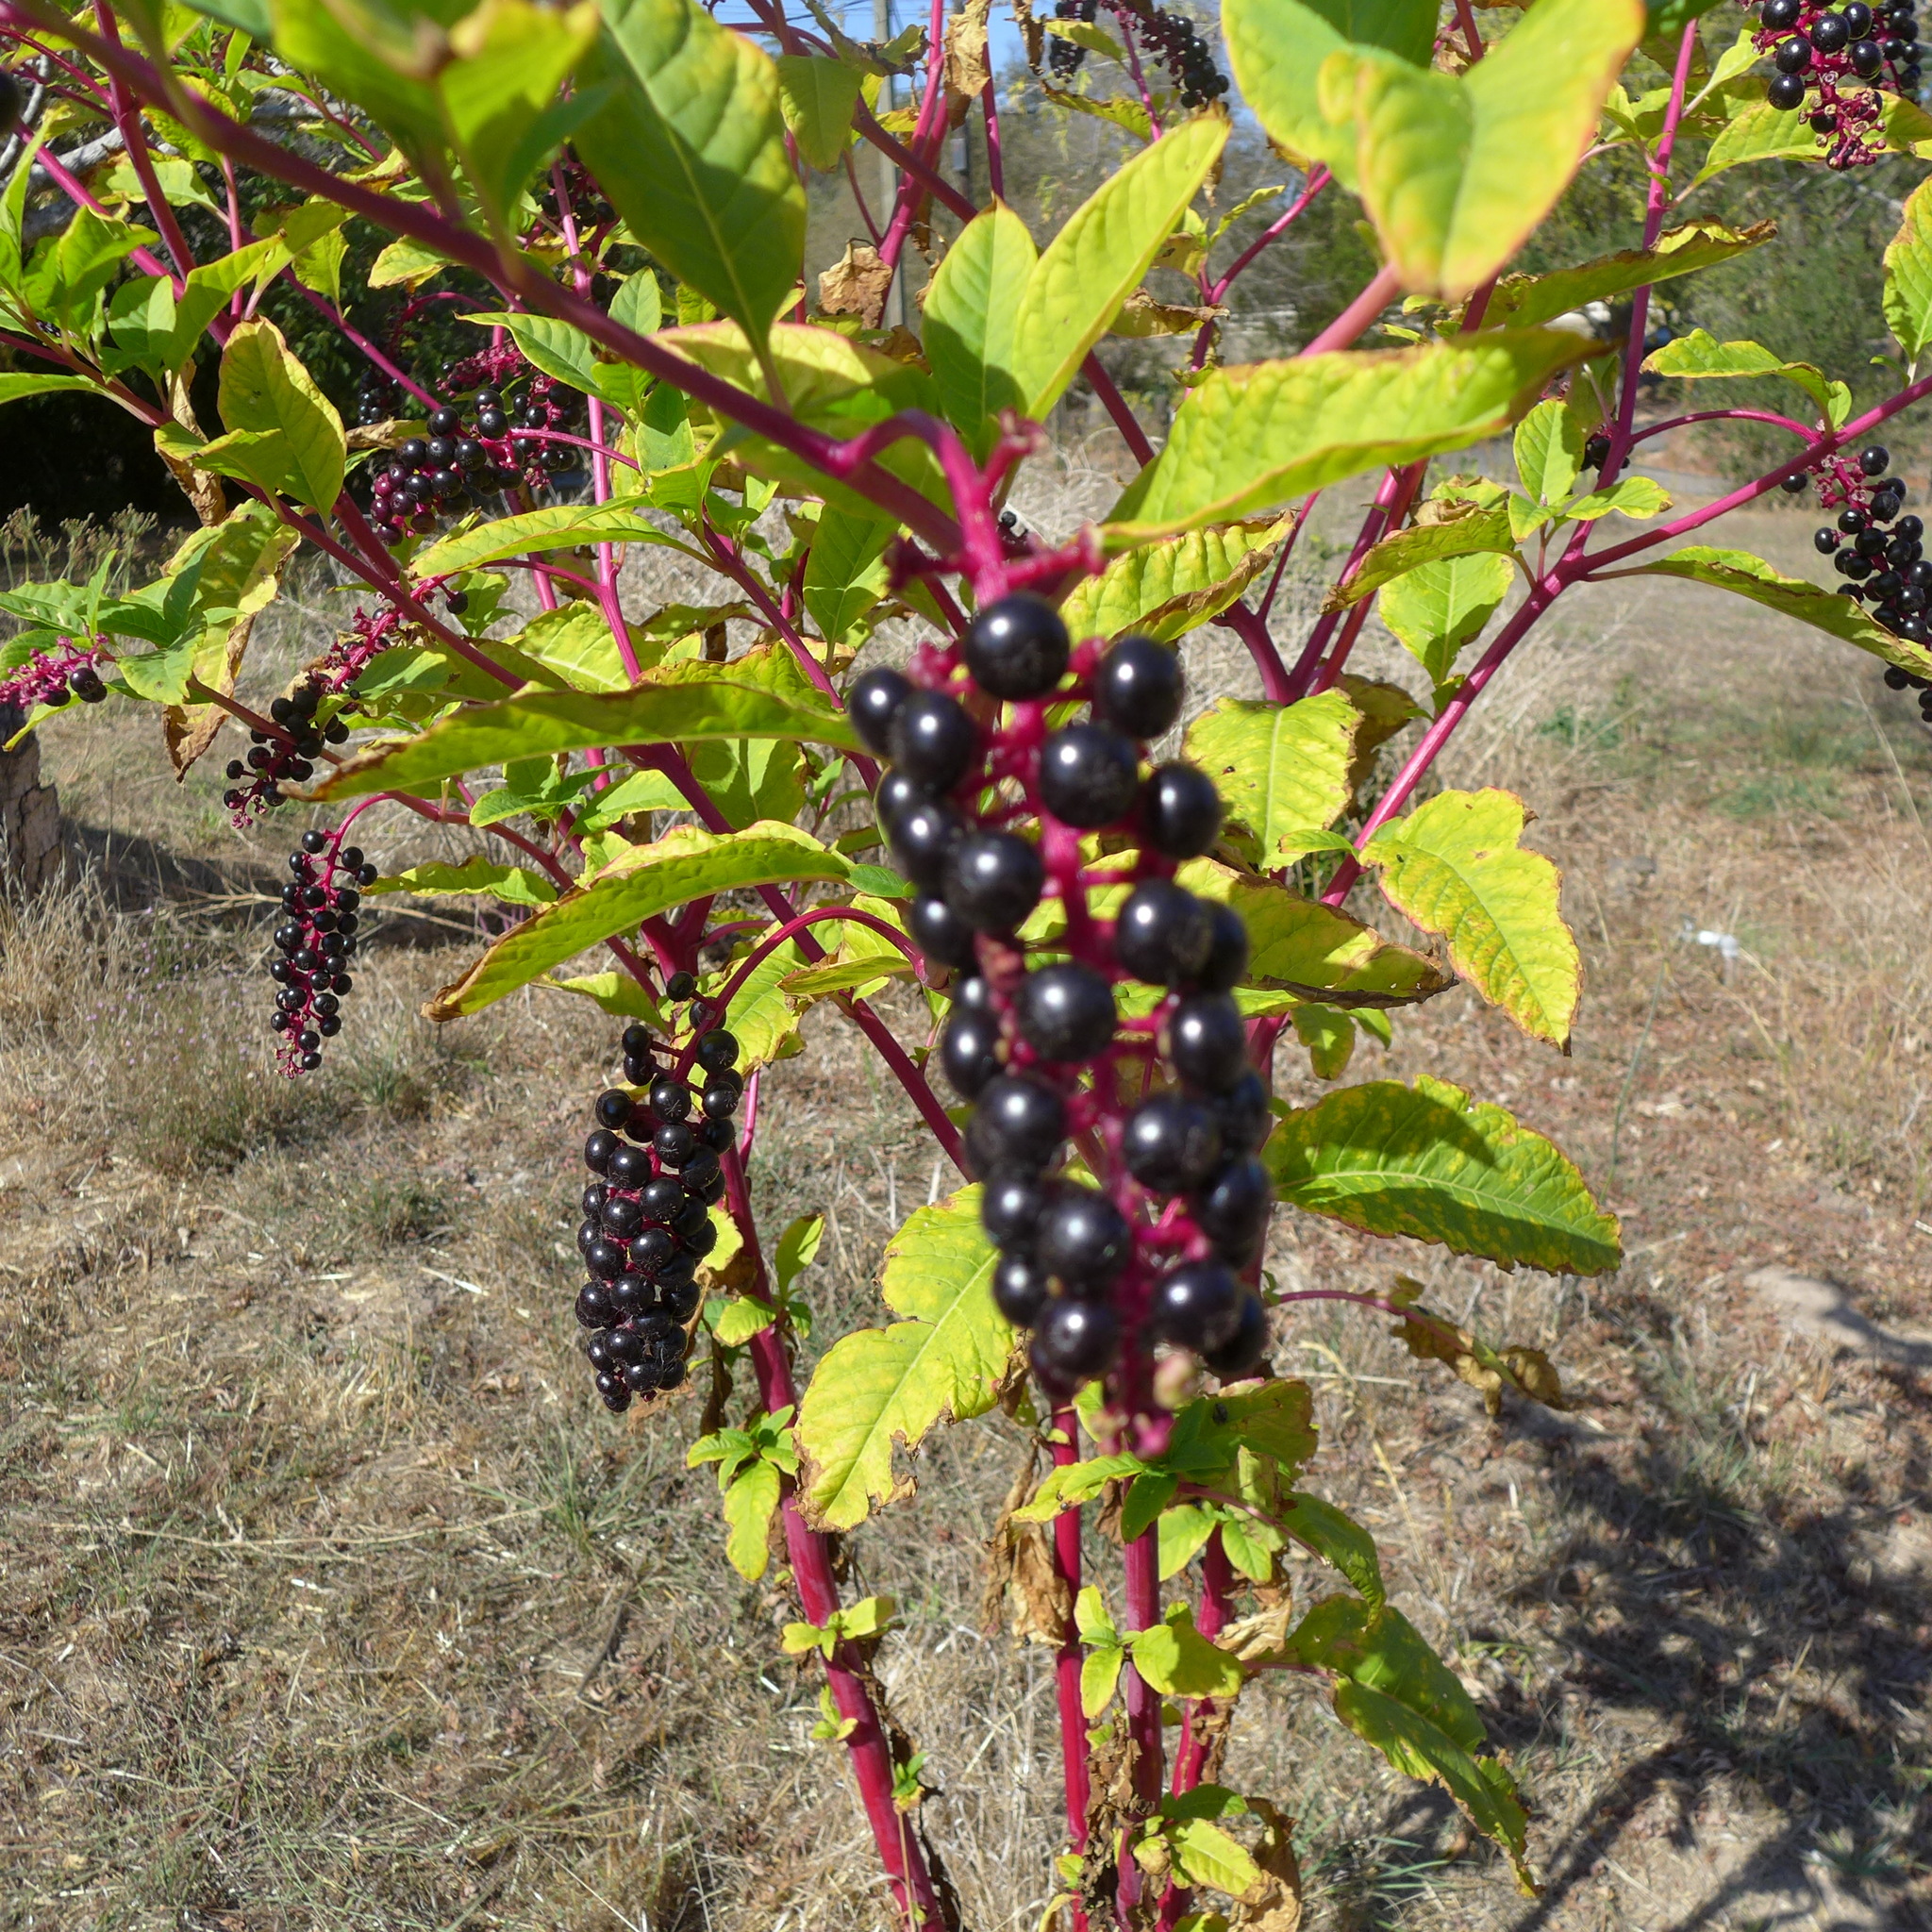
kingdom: Plantae
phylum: Tracheophyta
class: Magnoliopsida
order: Caryophyllales
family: Phytolaccaceae
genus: Phytolacca
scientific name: Phytolacca americana
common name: American pokeweed
